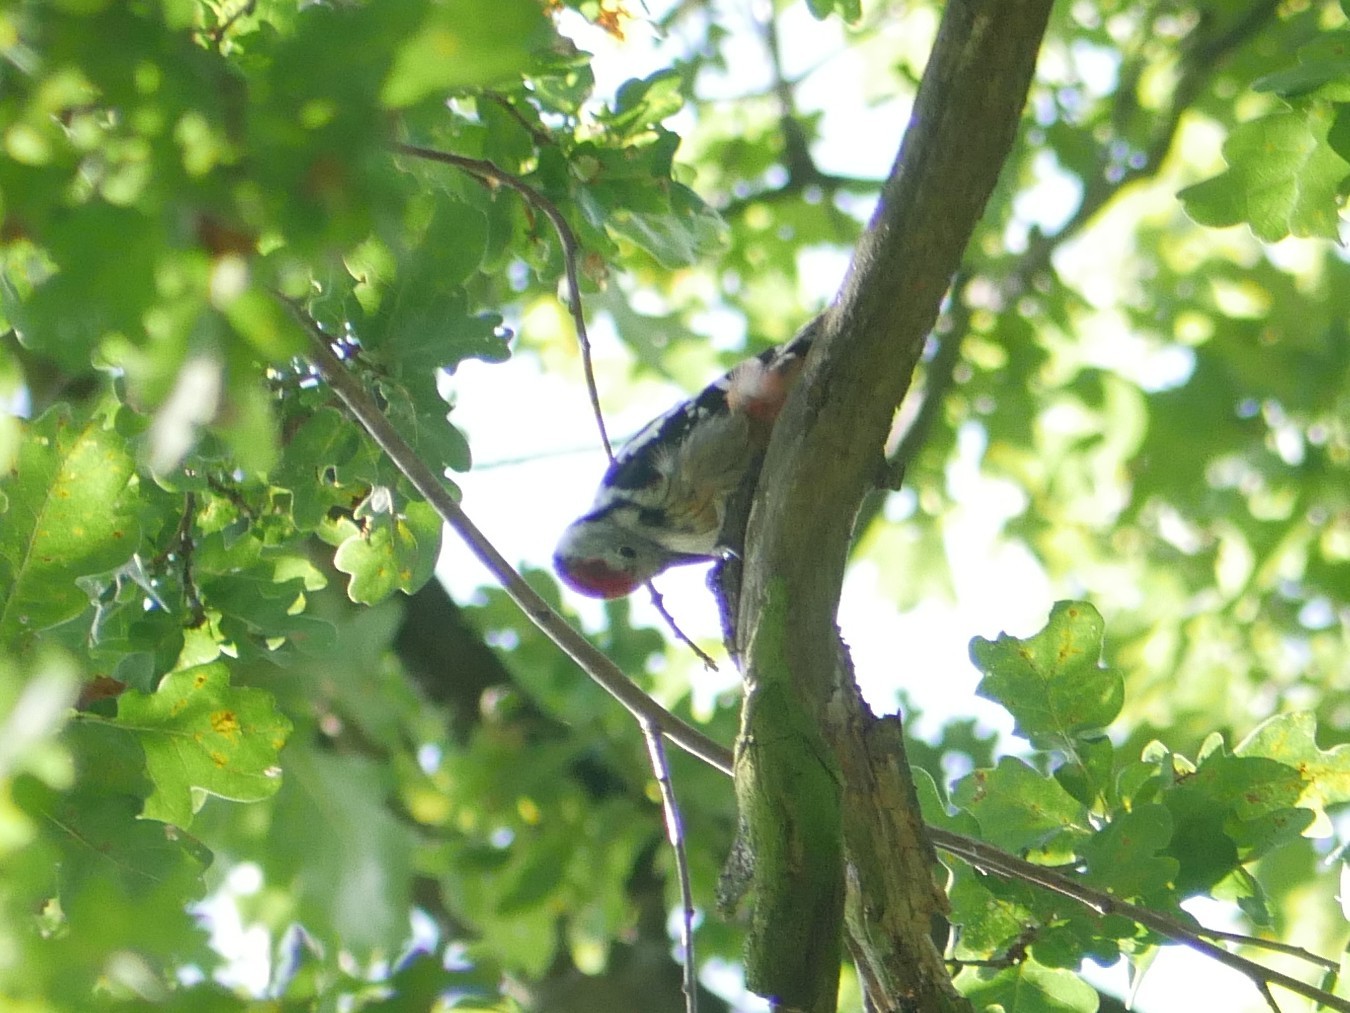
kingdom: Animalia
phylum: Chordata
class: Aves
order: Piciformes
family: Picidae
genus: Dendrocoptes
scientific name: Dendrocoptes medius
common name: Middle spotted woodpecker
